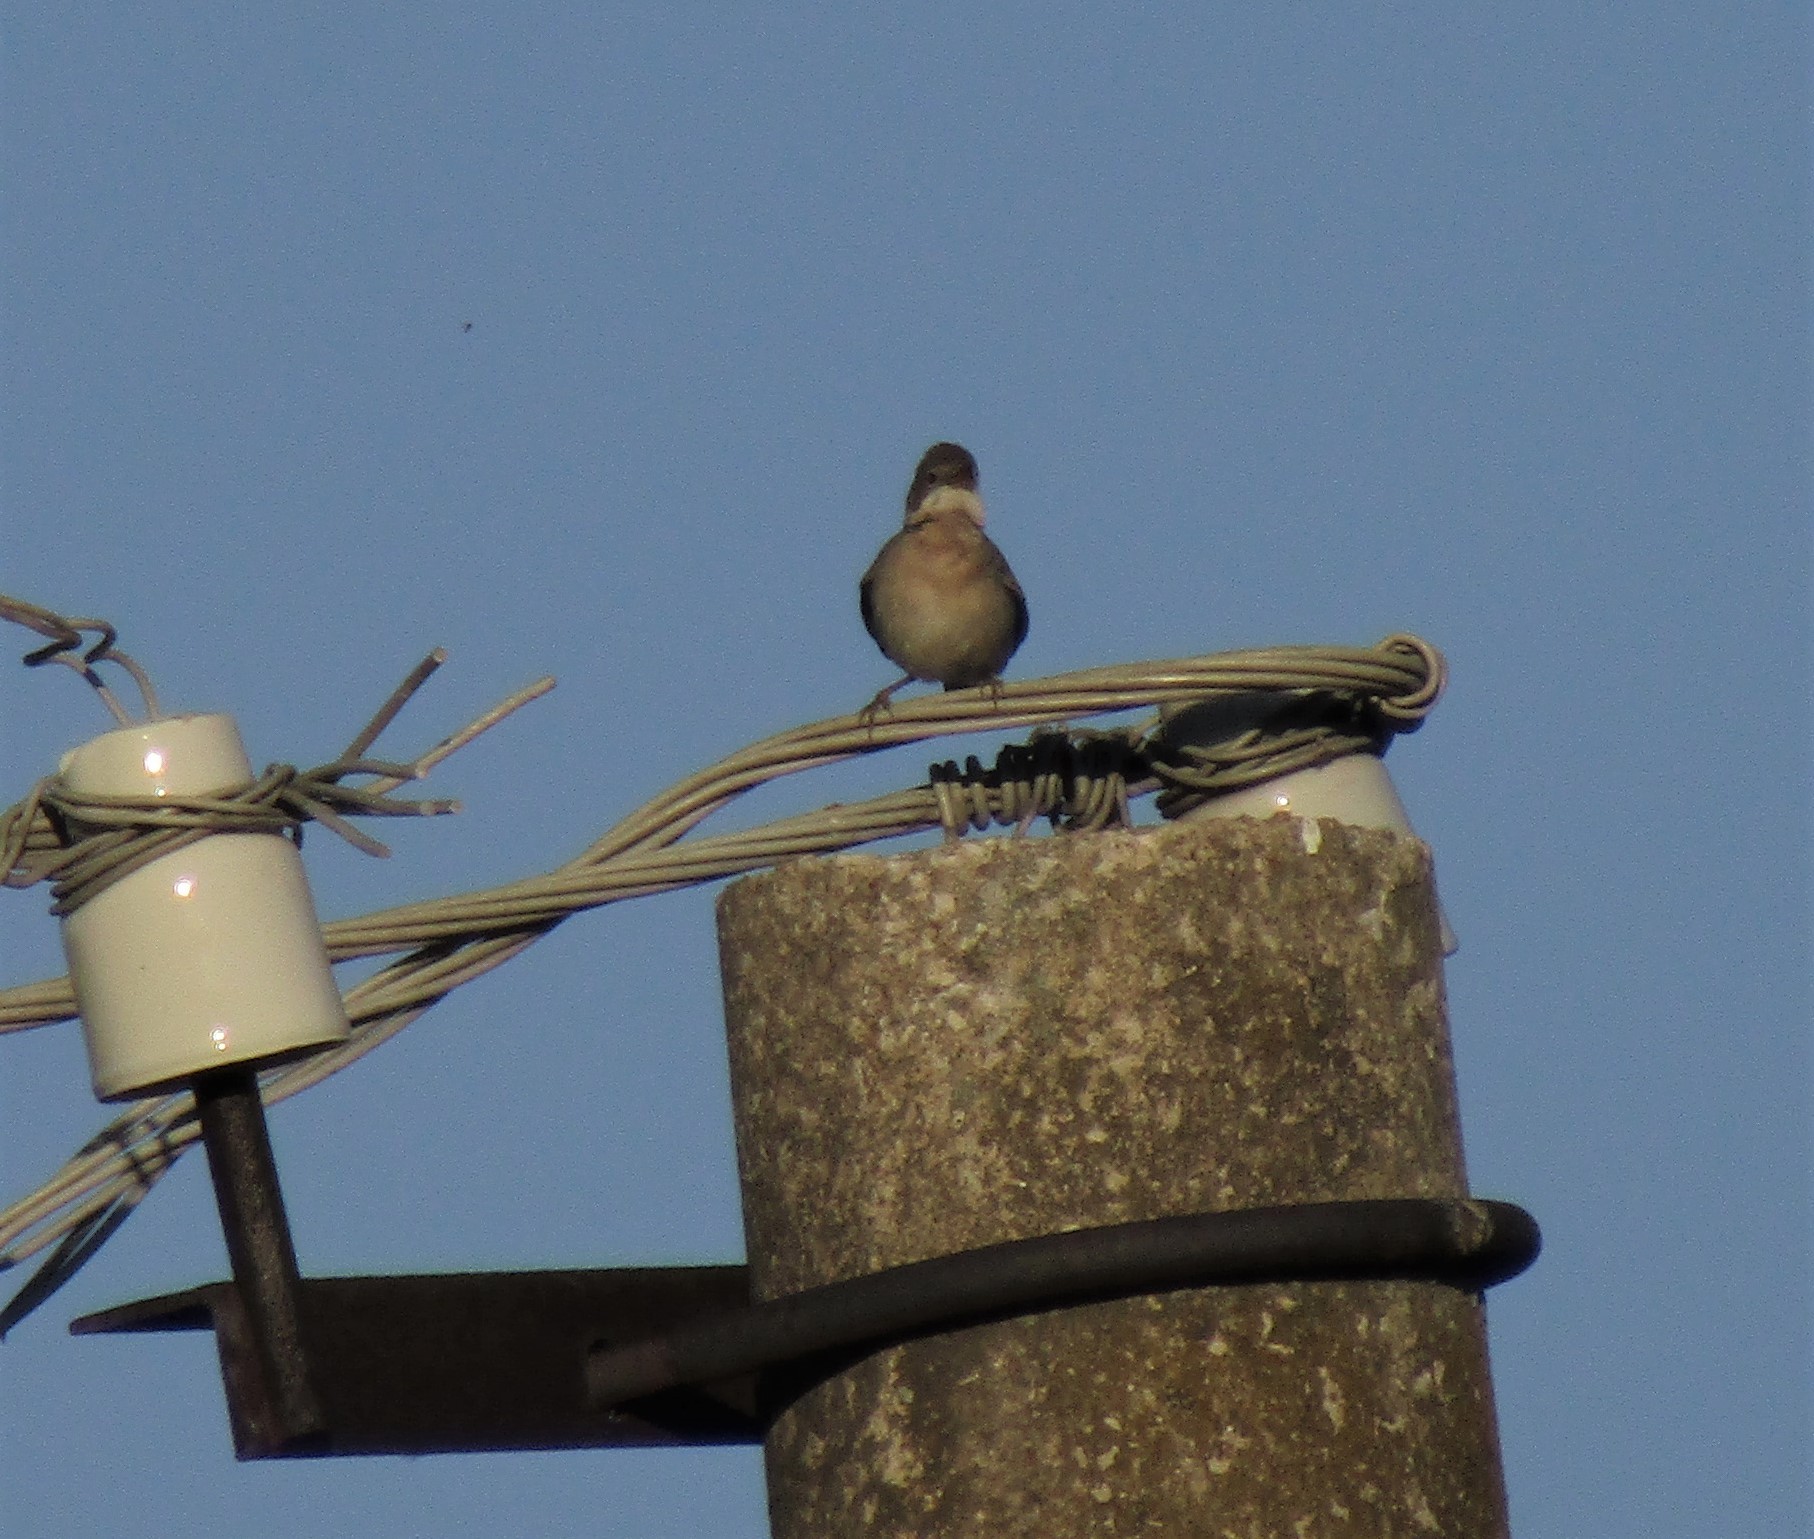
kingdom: Animalia
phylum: Chordata
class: Aves
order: Passeriformes
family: Sylviidae
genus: Sylvia
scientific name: Sylvia communis
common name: Common whitethroat
